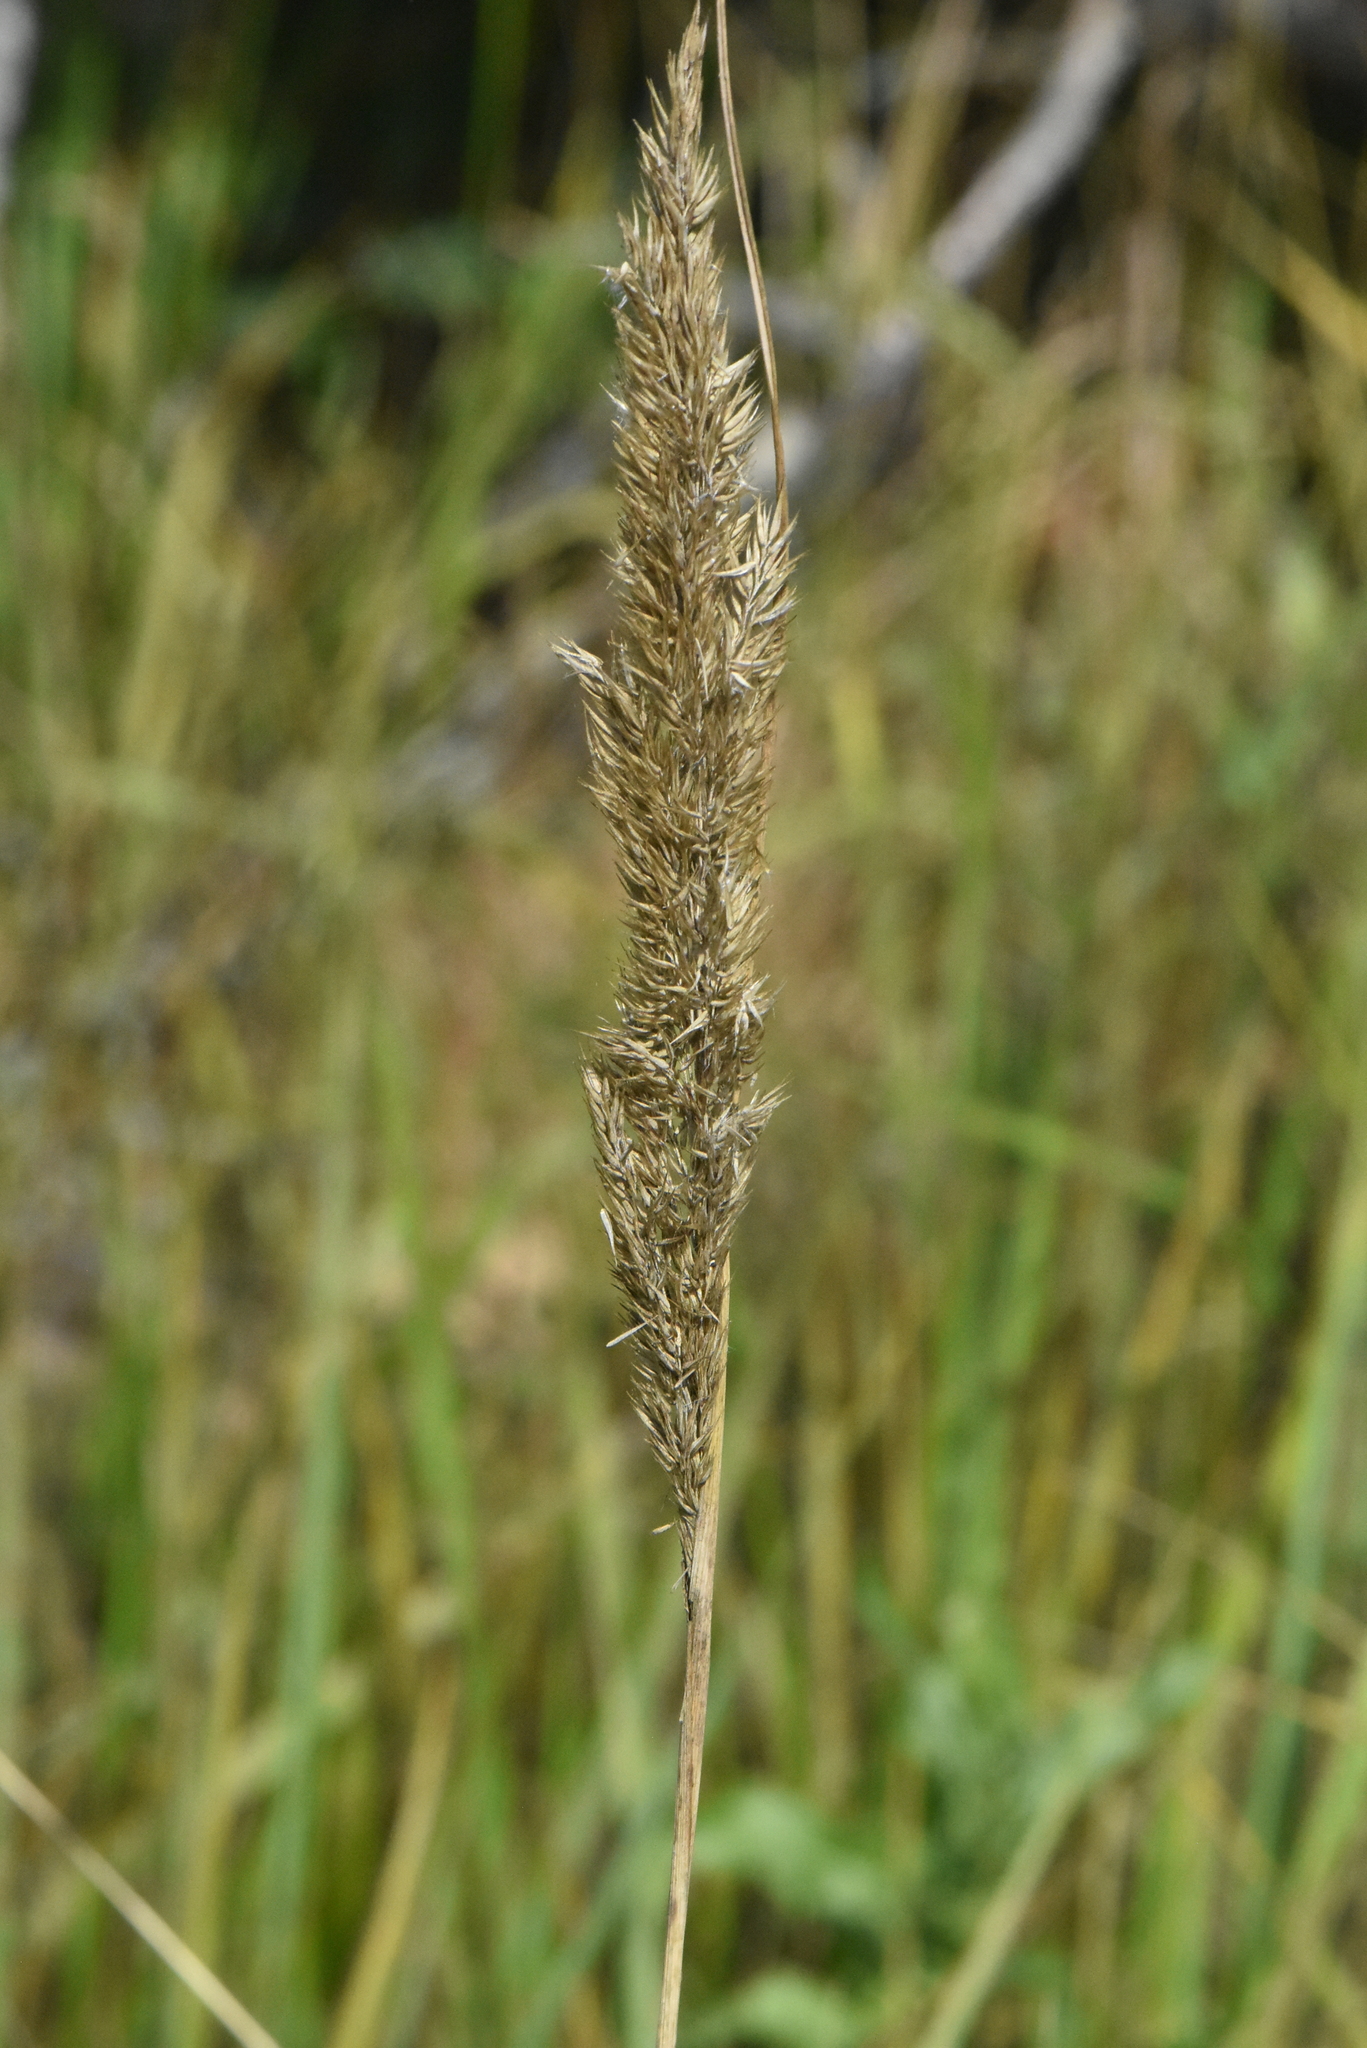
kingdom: Plantae
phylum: Tracheophyta
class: Liliopsida
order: Poales
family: Poaceae
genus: Calamagrostis
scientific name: Calamagrostis epigejos
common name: Wood small-reed
